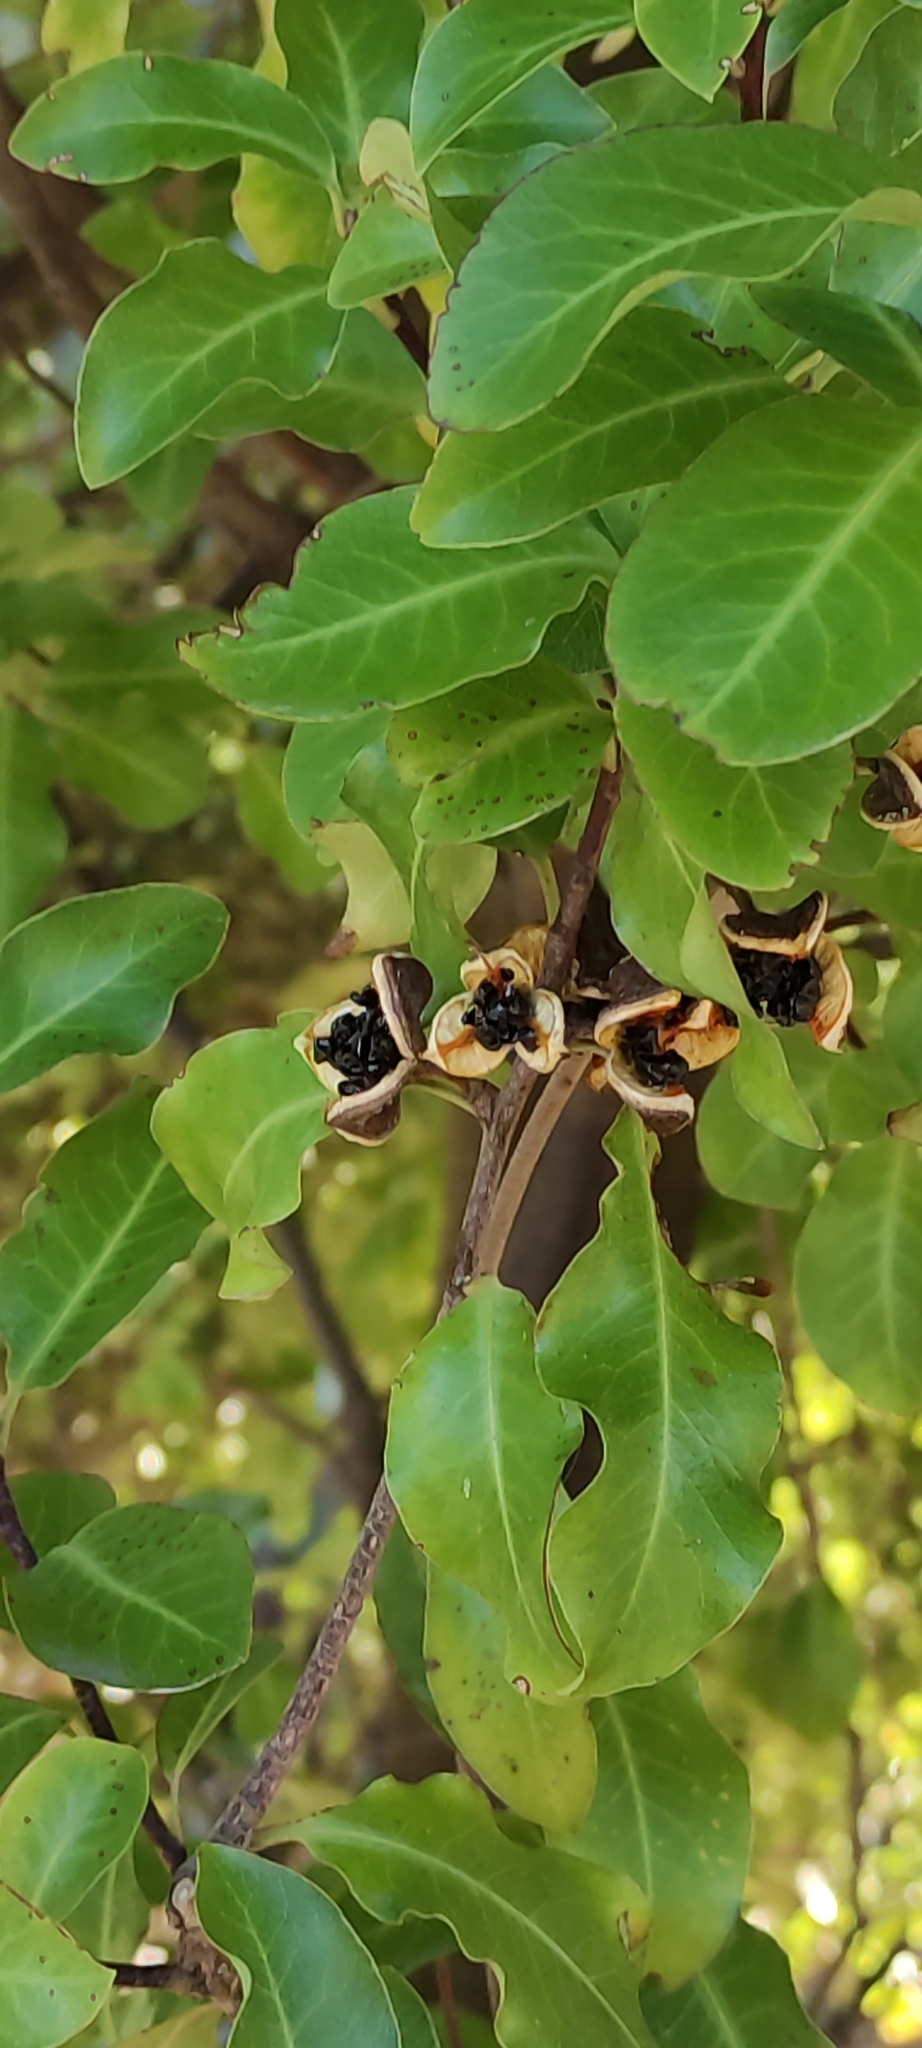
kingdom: Plantae
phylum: Tracheophyta
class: Magnoliopsida
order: Apiales
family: Pittosporaceae
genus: Pittosporum
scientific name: Pittosporum tenuifolium
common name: Kohuhu
